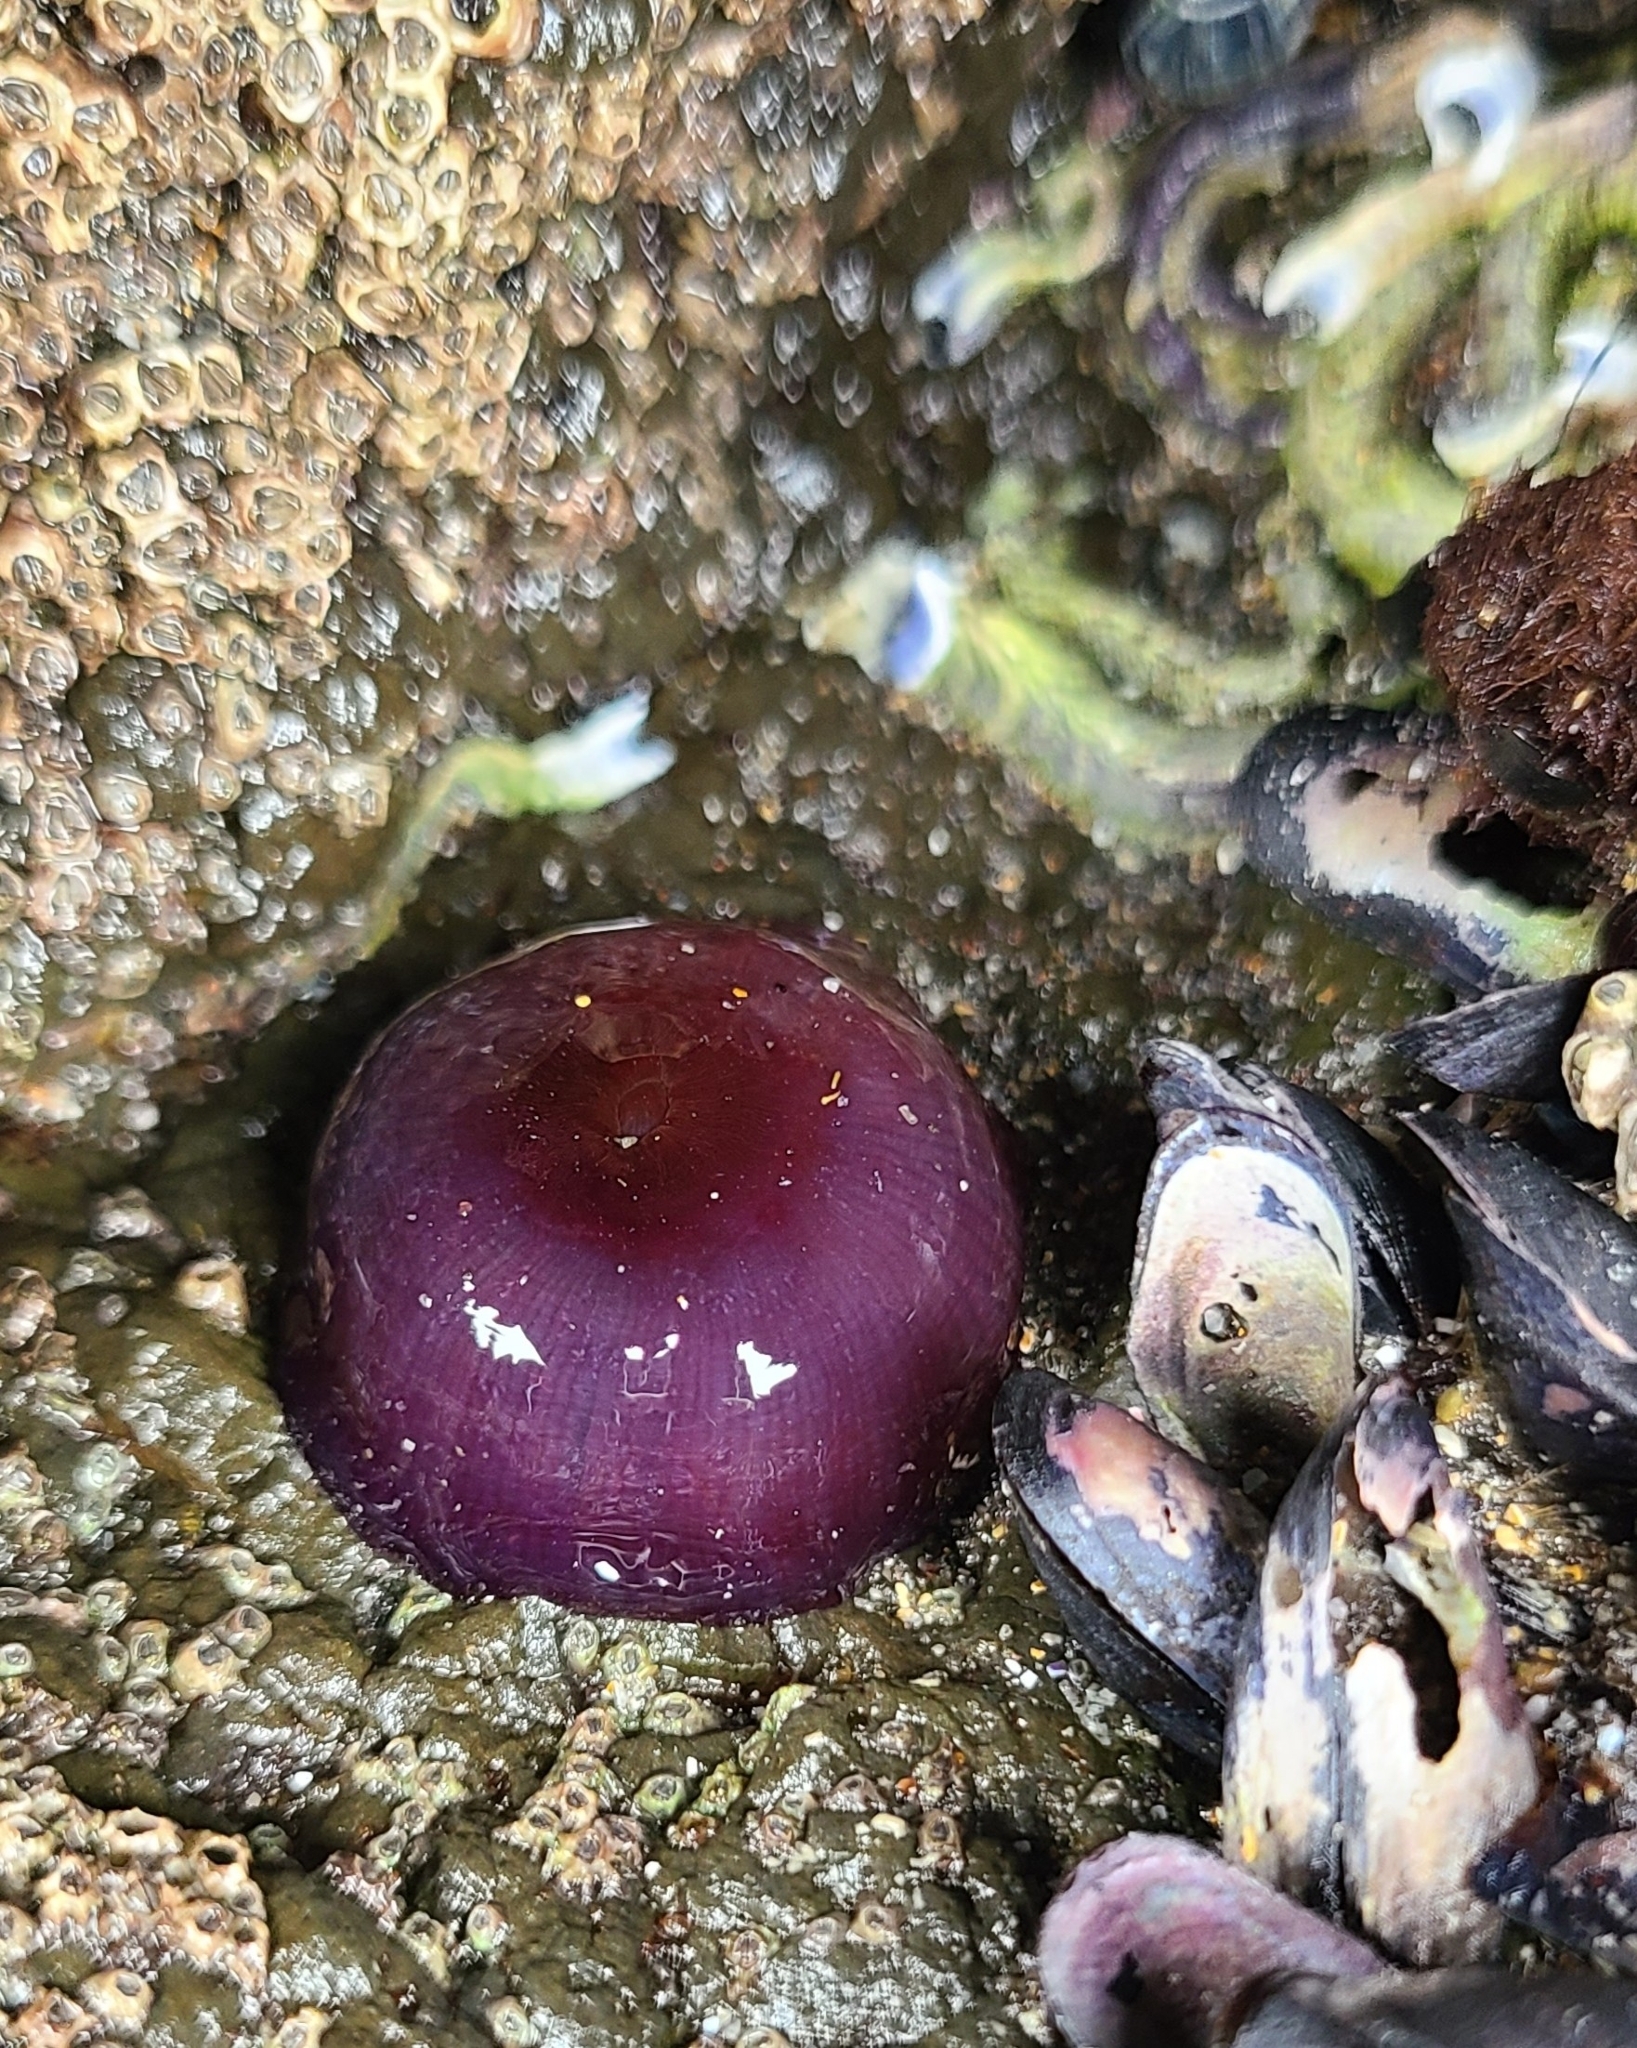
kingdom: Animalia
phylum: Cnidaria
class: Anthozoa
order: Actiniaria
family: Actiniidae
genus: Actinia
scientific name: Actinia tenebrosa
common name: Waratah anemone
